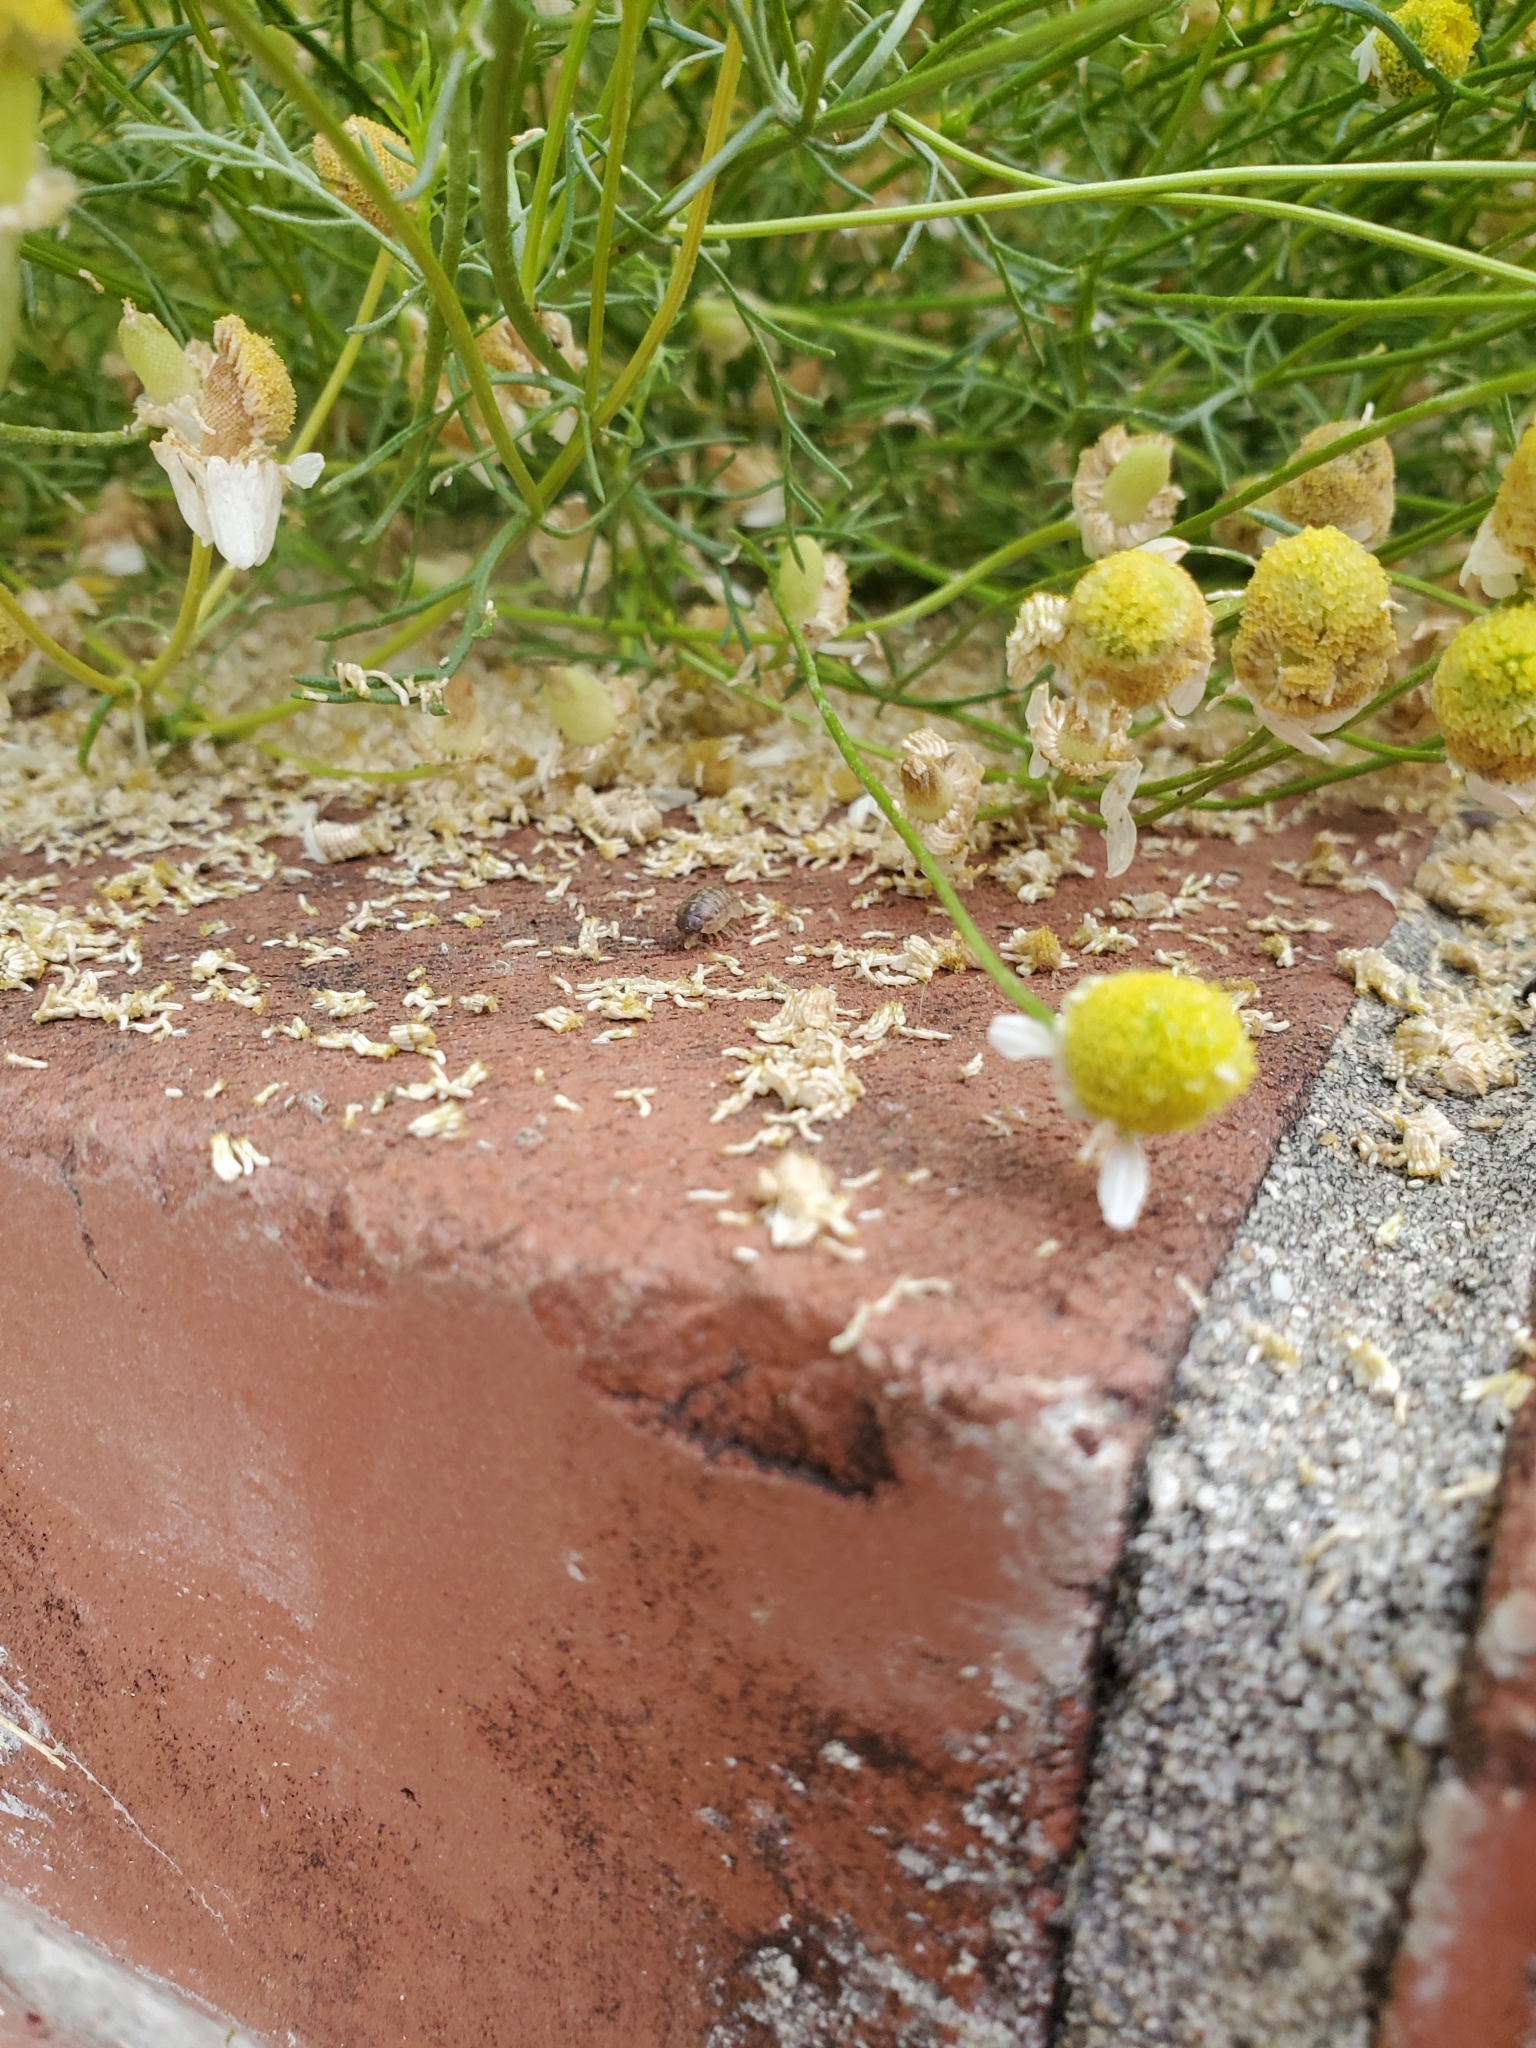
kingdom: Animalia
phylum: Arthropoda
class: Malacostraca
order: Isopoda
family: Armadillidiidae
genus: Armadillidium
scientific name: Armadillidium vulgare
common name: Common pill woodlouse
